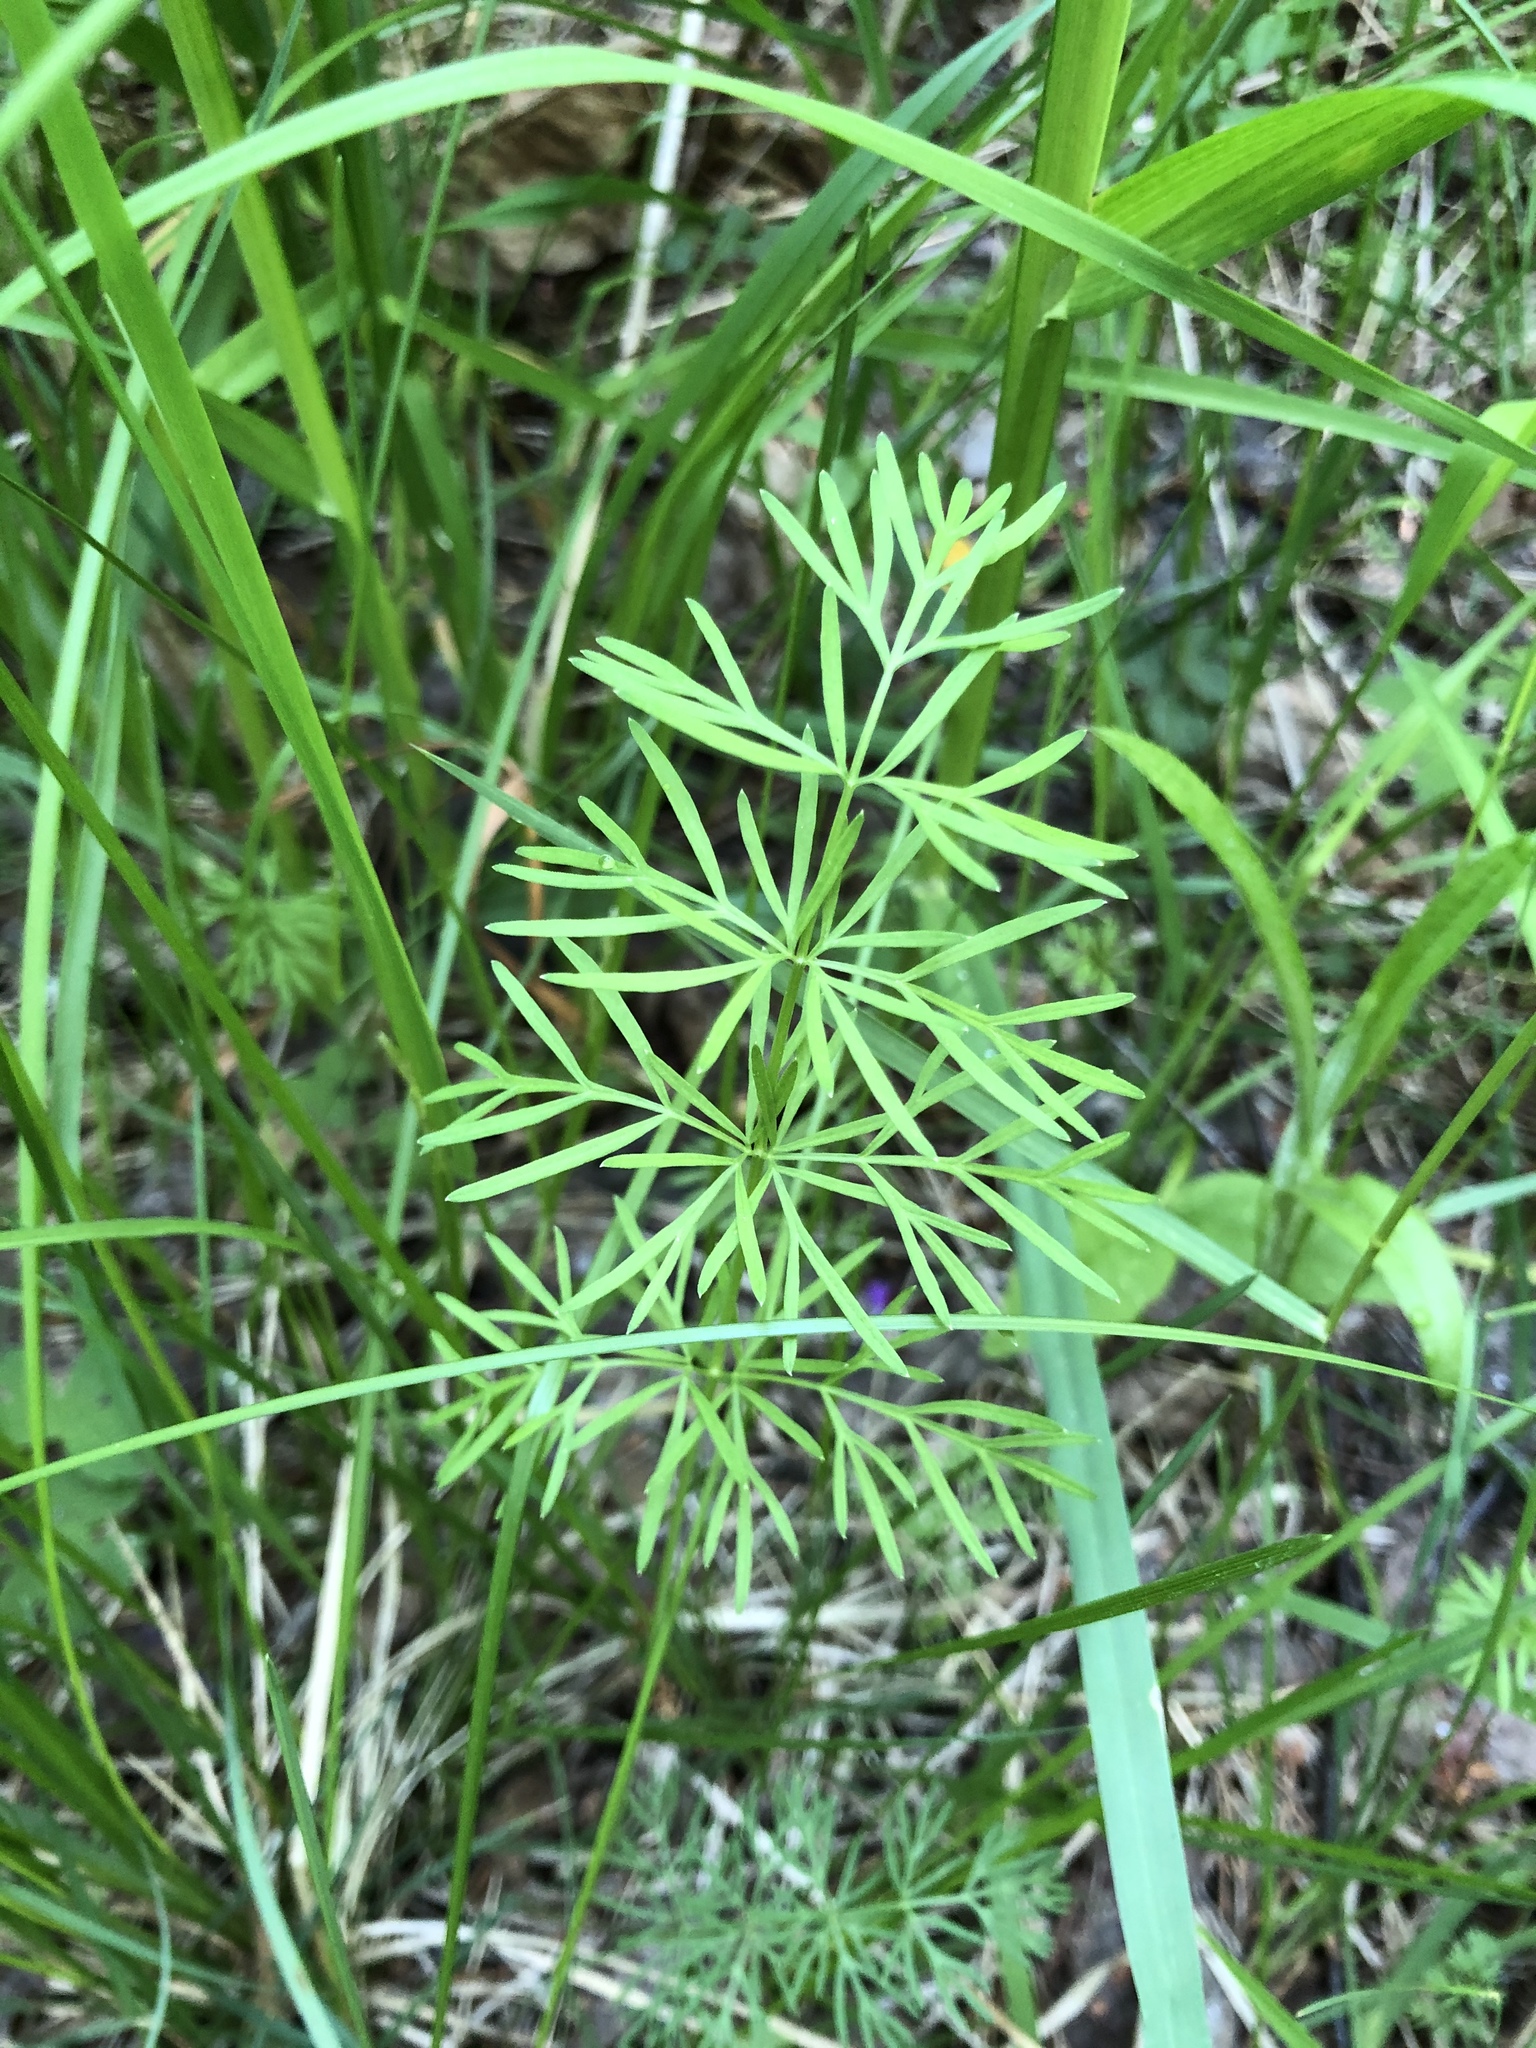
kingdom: Plantae
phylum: Tracheophyta
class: Magnoliopsida
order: Apiales
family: Apiaceae
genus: Kadenia
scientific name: Kadenia dubia
